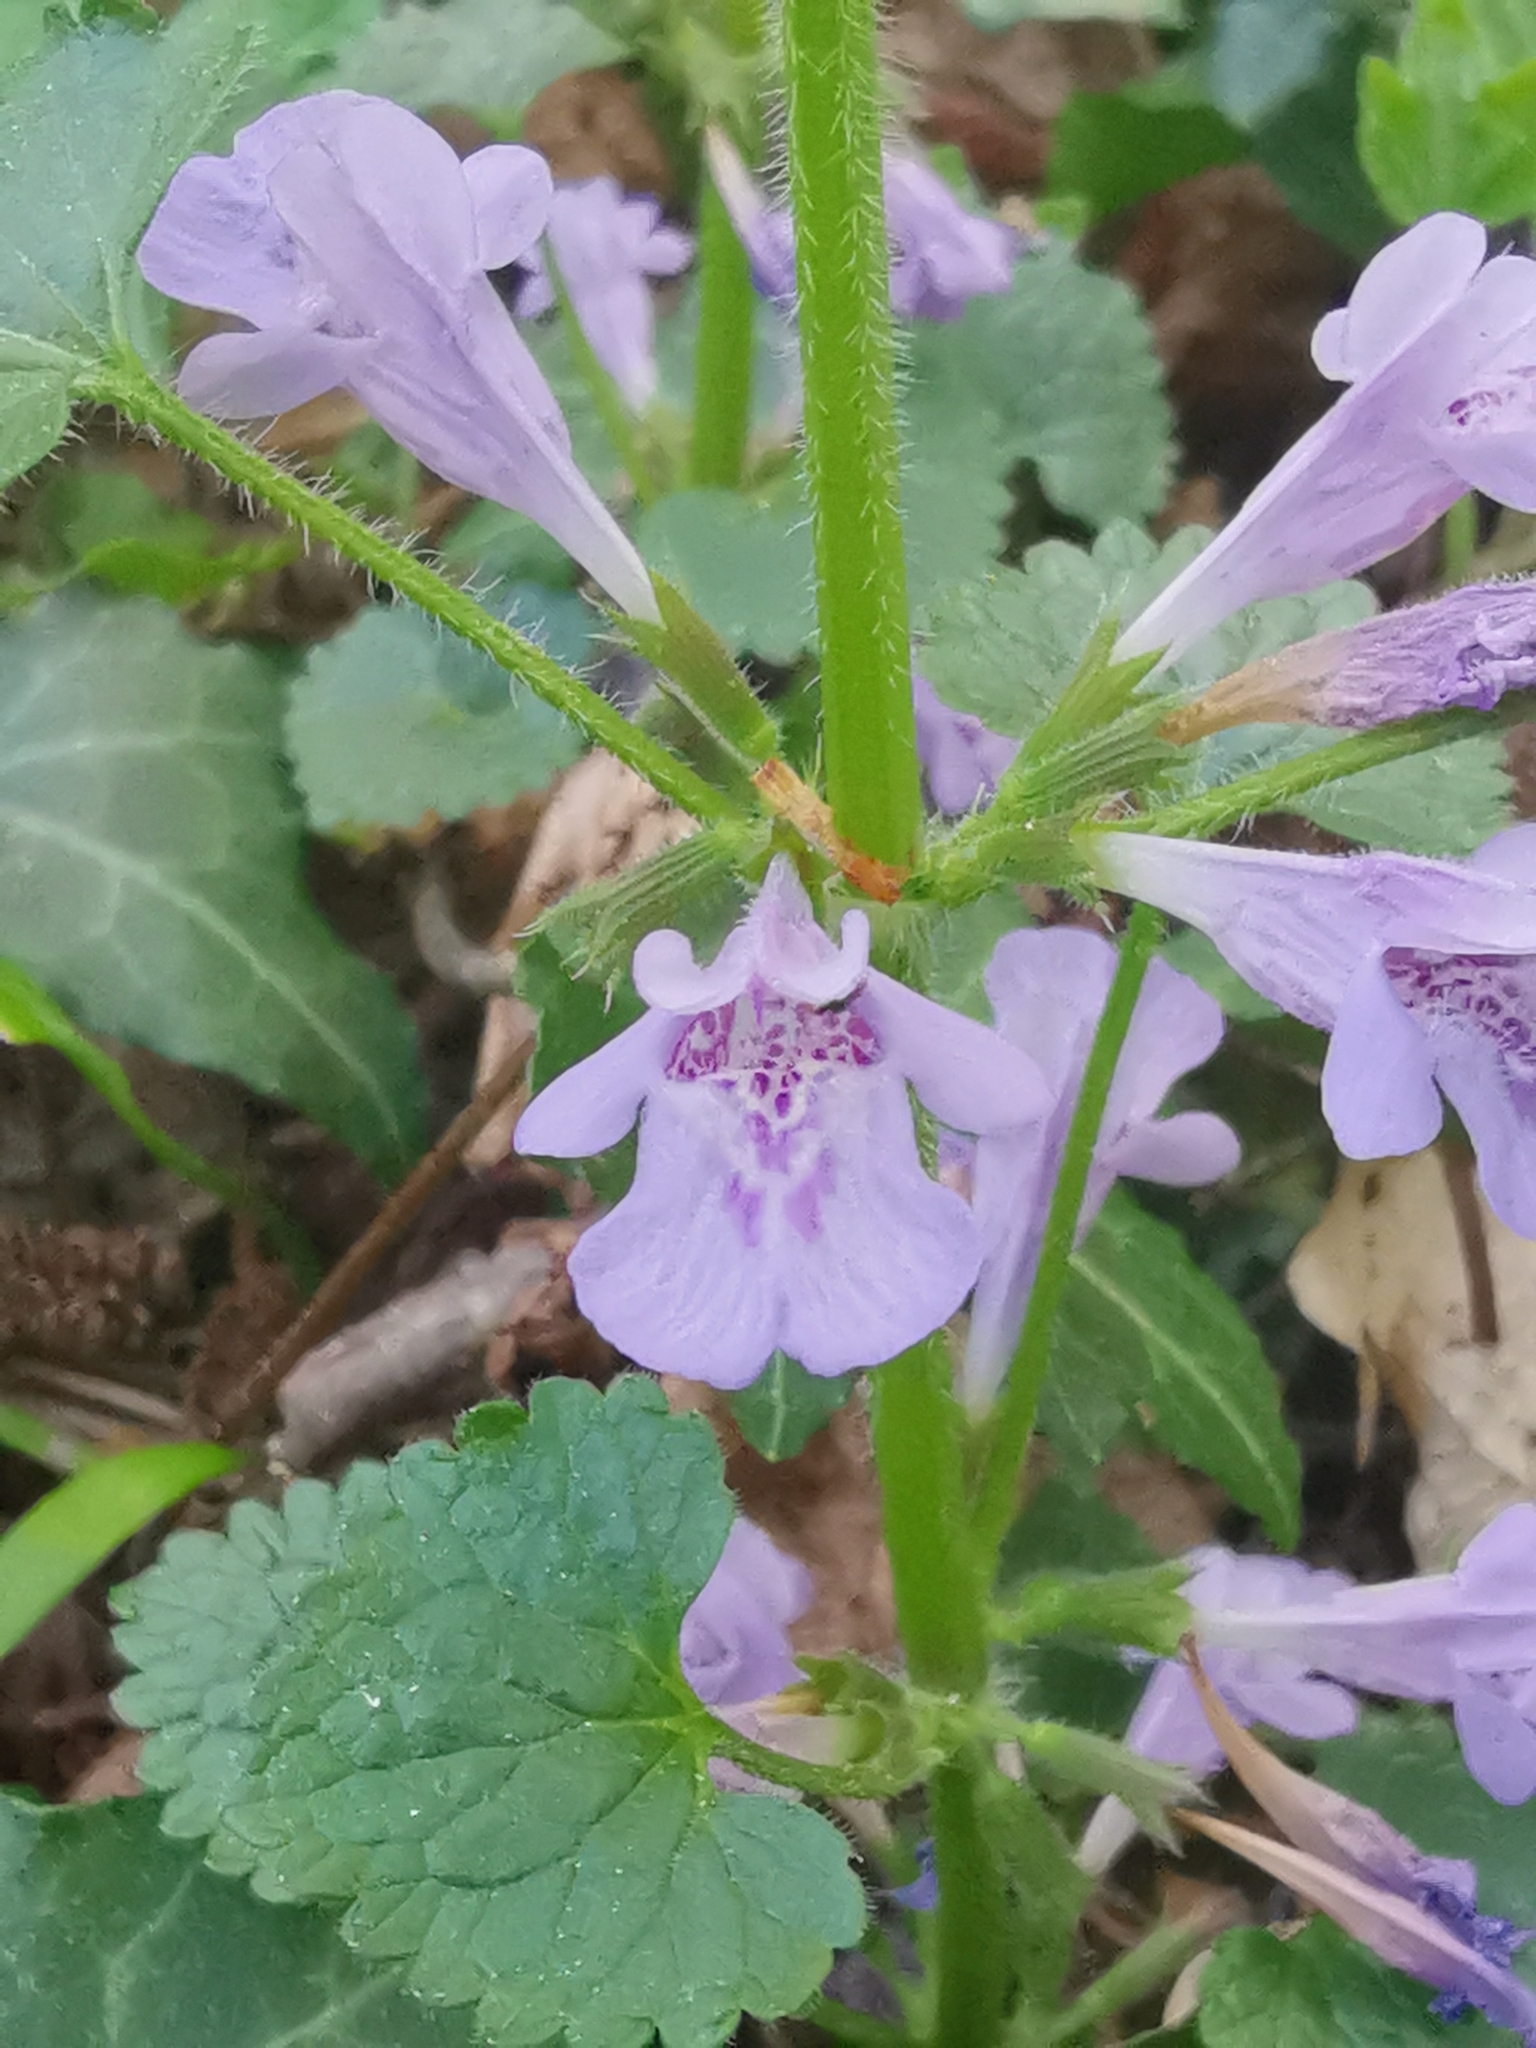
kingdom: Plantae
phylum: Tracheophyta
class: Magnoliopsida
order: Lamiales
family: Lamiaceae
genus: Glechoma
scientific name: Glechoma hederacea
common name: Ground ivy
